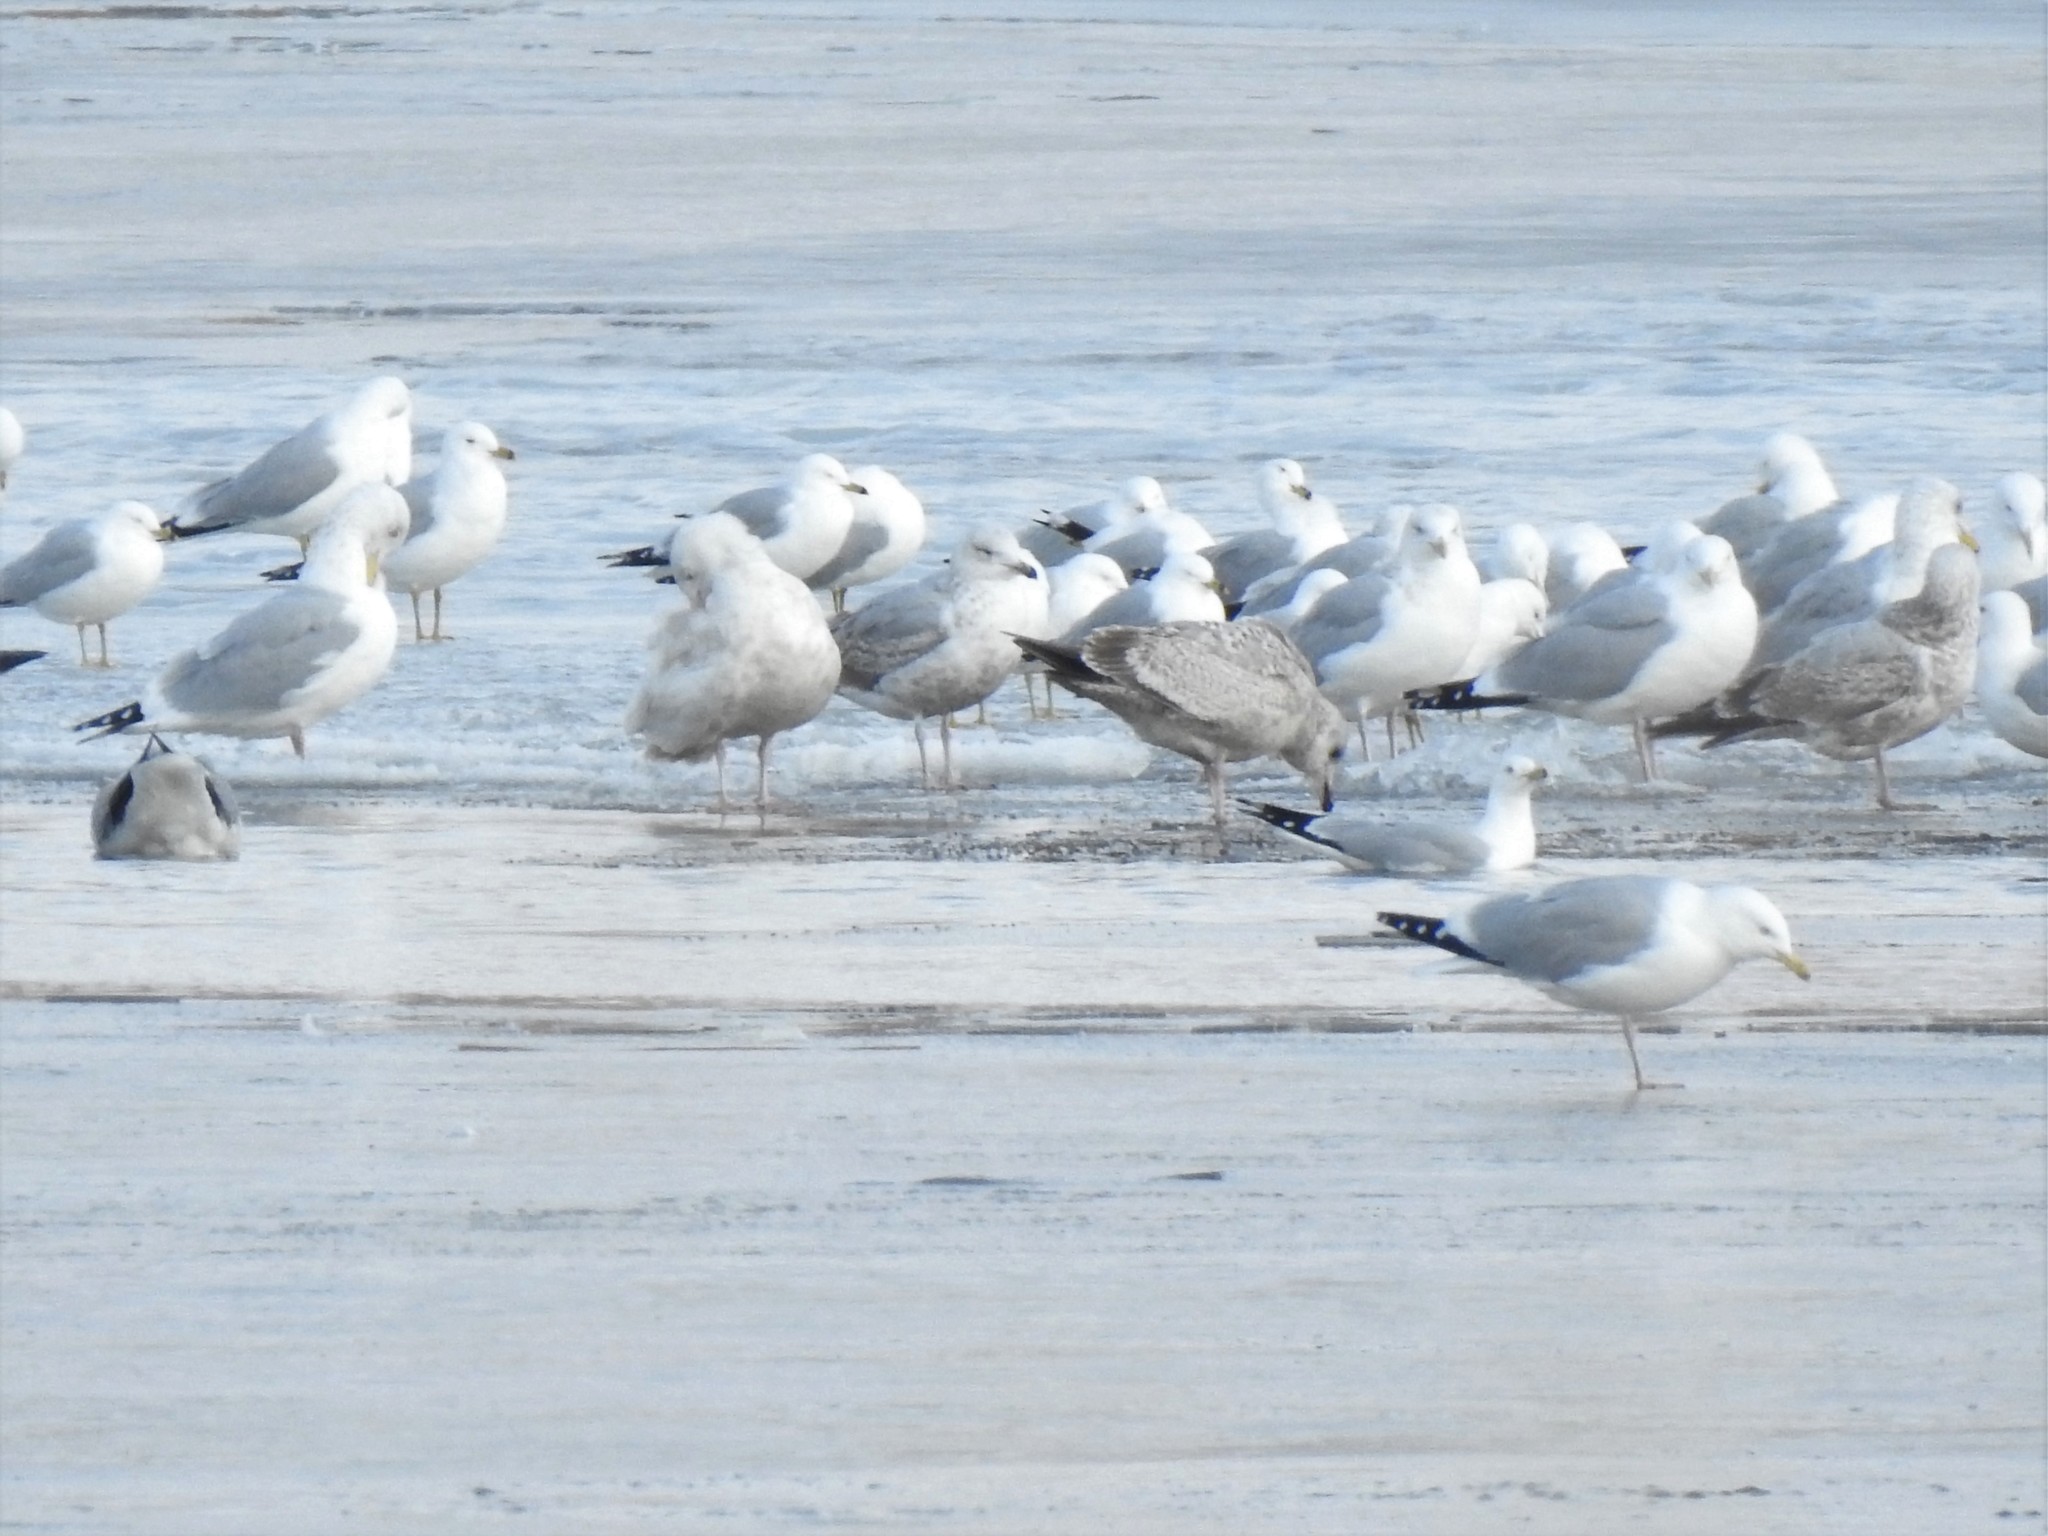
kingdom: Animalia
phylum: Chordata
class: Aves
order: Charadriiformes
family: Laridae
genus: Larus
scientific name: Larus argentatus
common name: Herring gull
